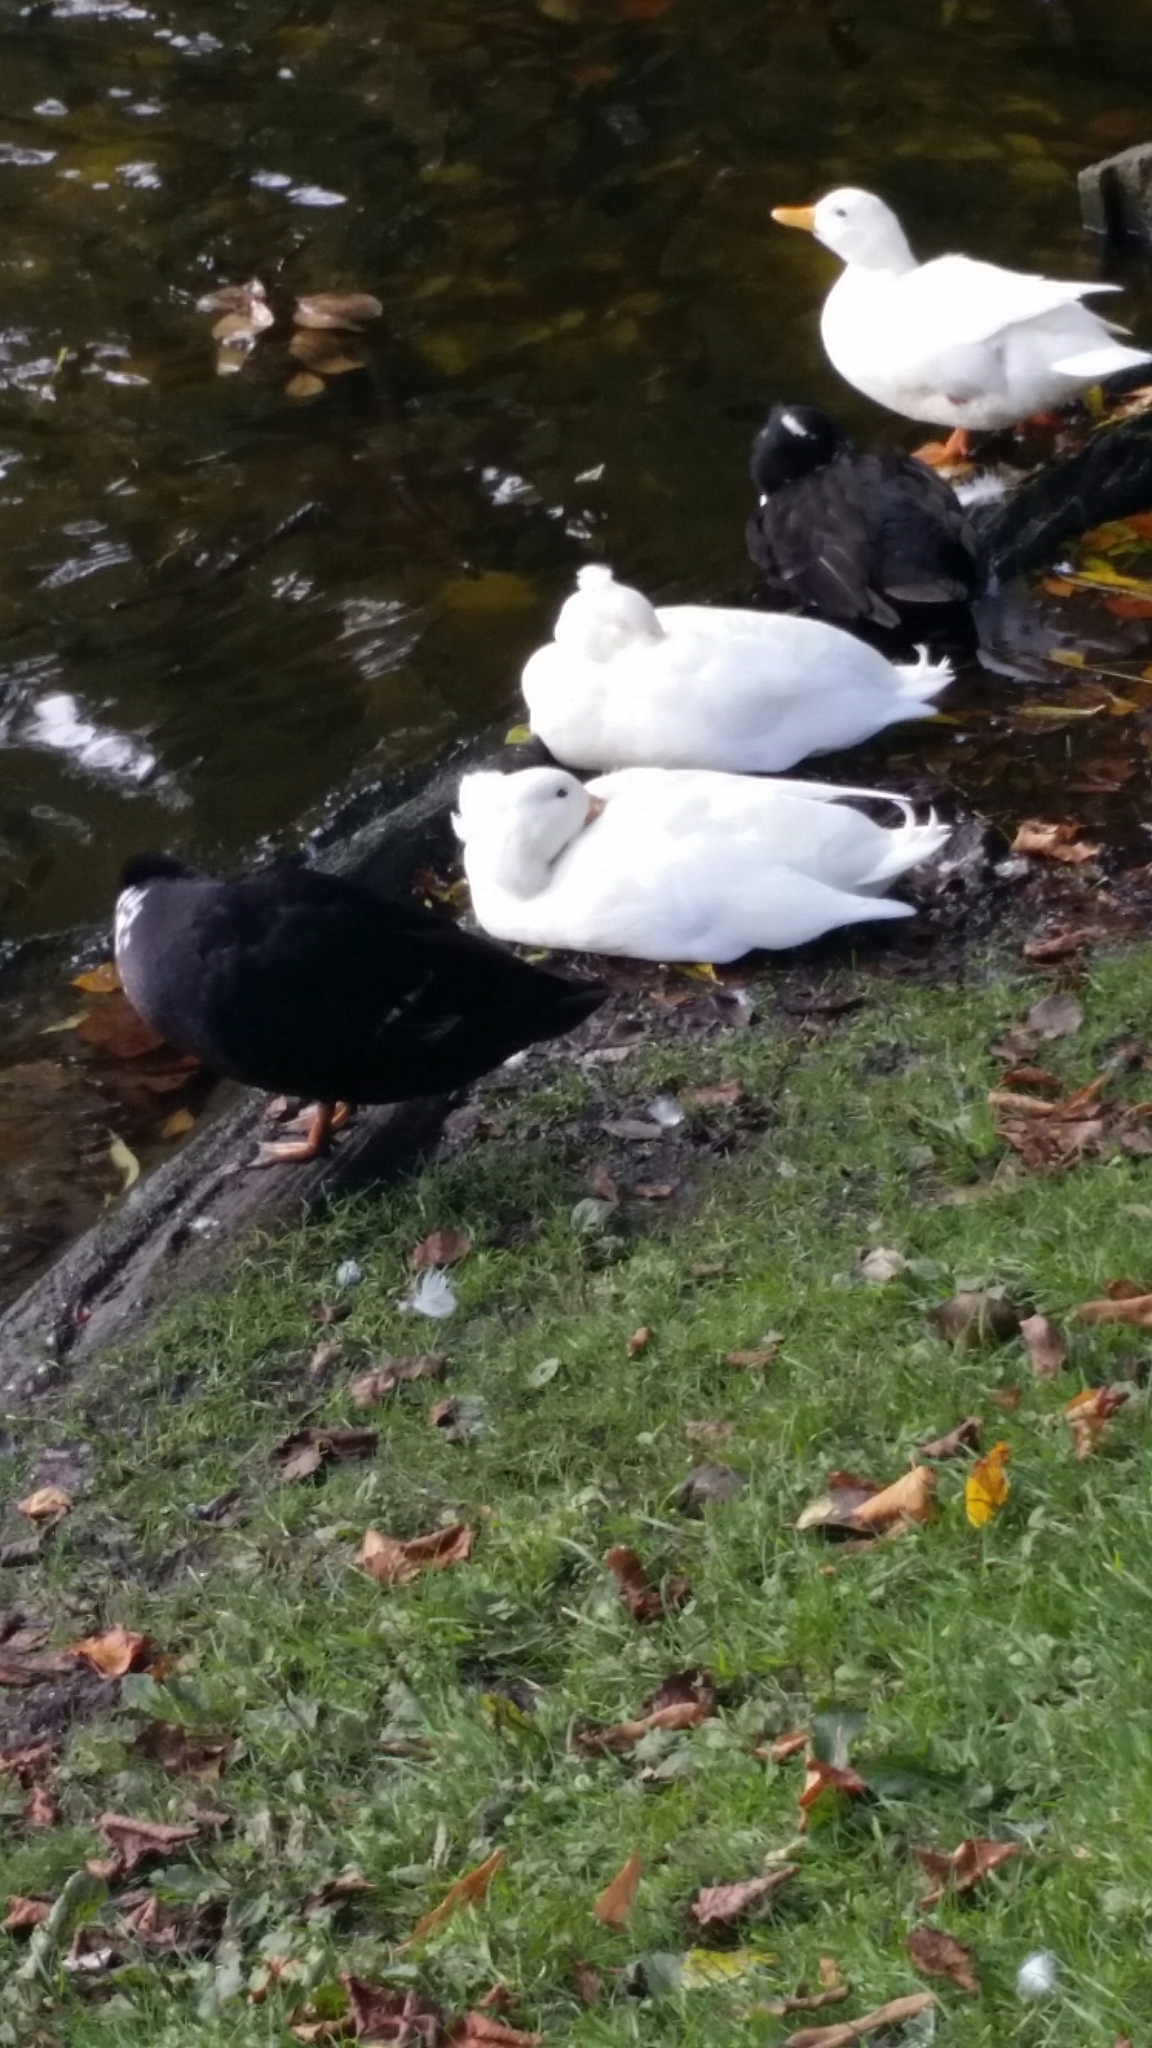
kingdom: Animalia
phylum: Chordata
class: Aves
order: Anseriformes
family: Anatidae
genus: Anas
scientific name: Anas platyrhynchos
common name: Mallard
